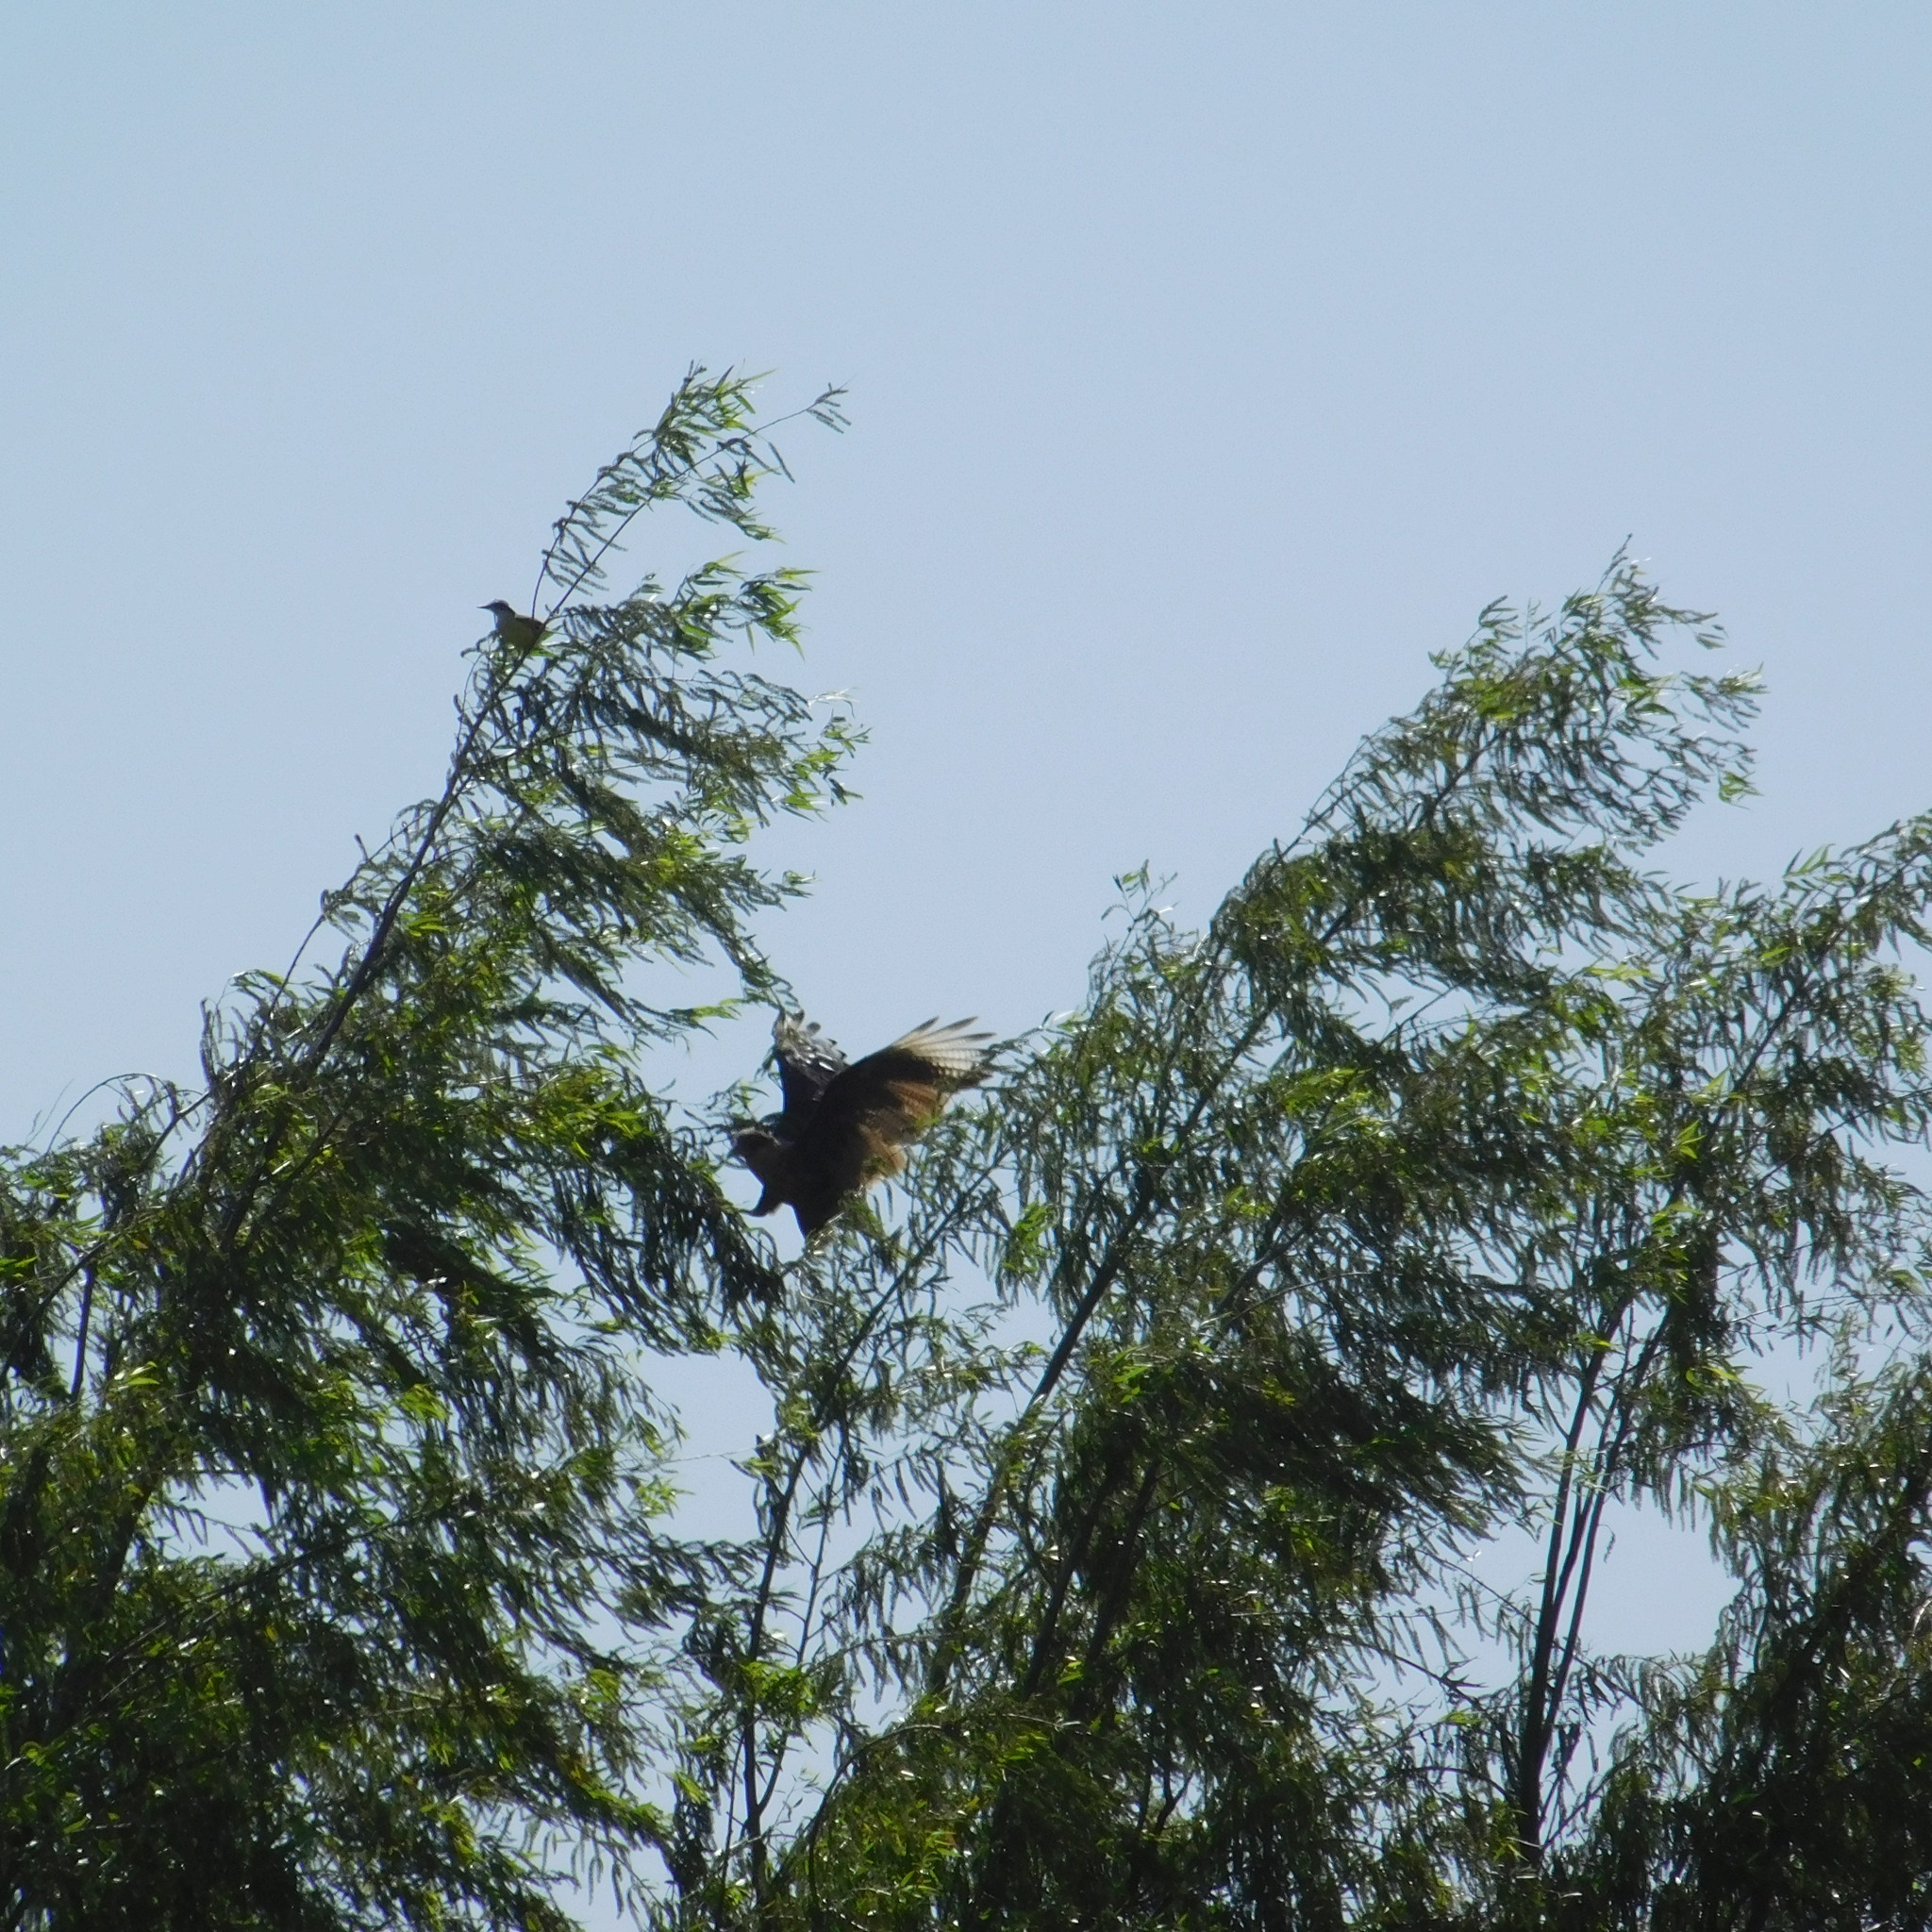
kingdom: Animalia
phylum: Chordata
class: Aves
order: Falconiformes
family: Falconidae
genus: Caracara
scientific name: Caracara plancus
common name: Southern caracara
